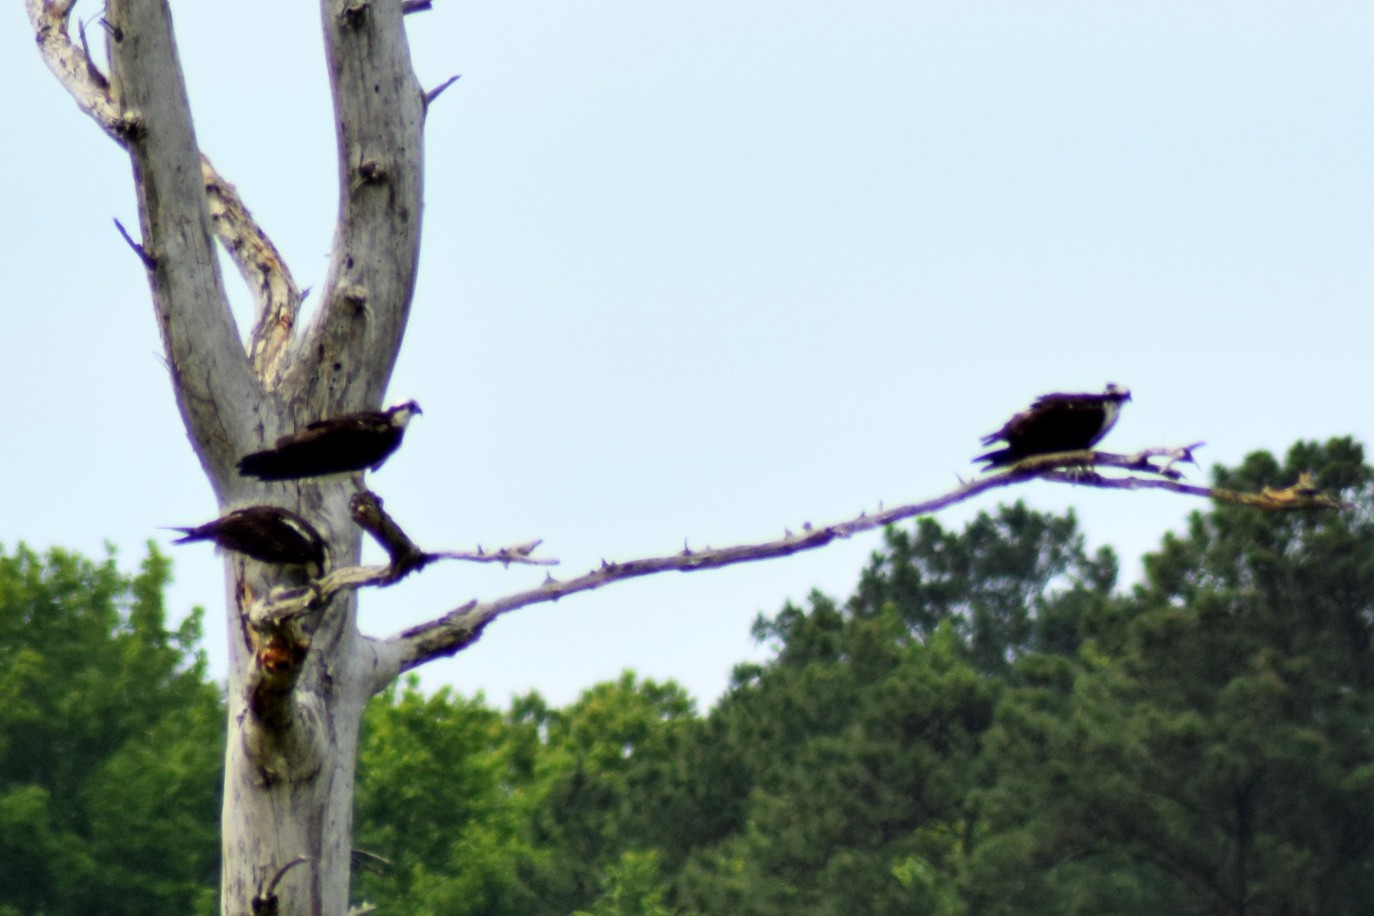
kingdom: Animalia
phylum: Chordata
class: Aves
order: Accipitriformes
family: Pandionidae
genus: Pandion
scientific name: Pandion haliaetus
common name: Osprey
